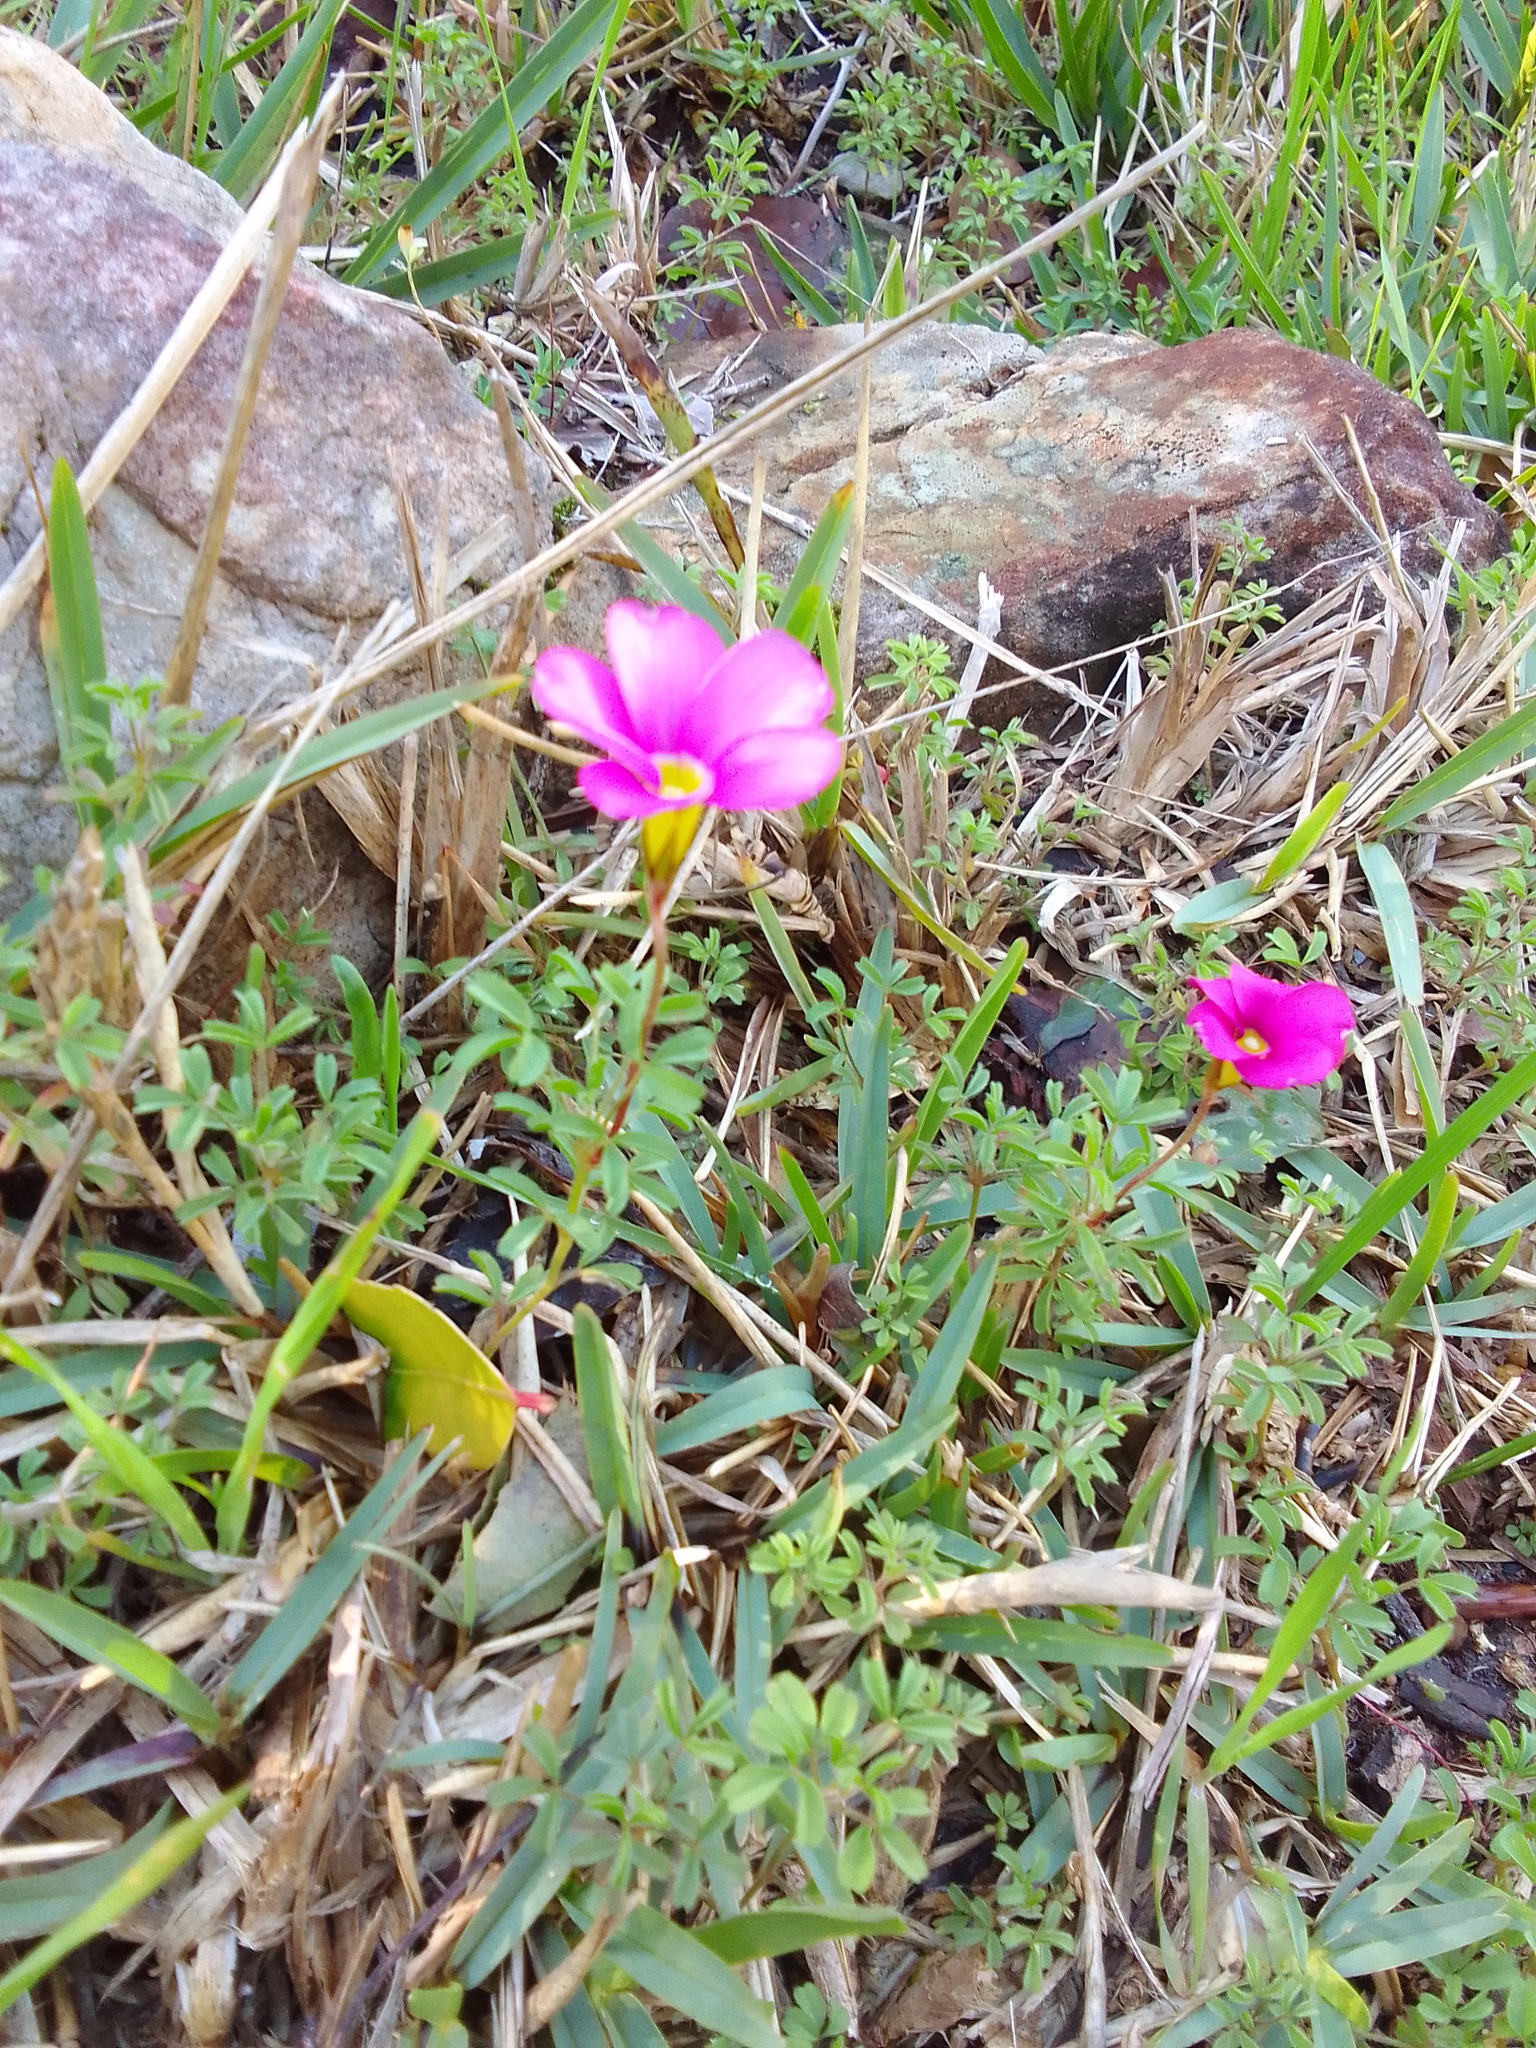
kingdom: Plantae
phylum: Tracheophyta
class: Magnoliopsida
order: Oxalidales
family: Oxalidaceae
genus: Oxalis
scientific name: Oxalis glabra
